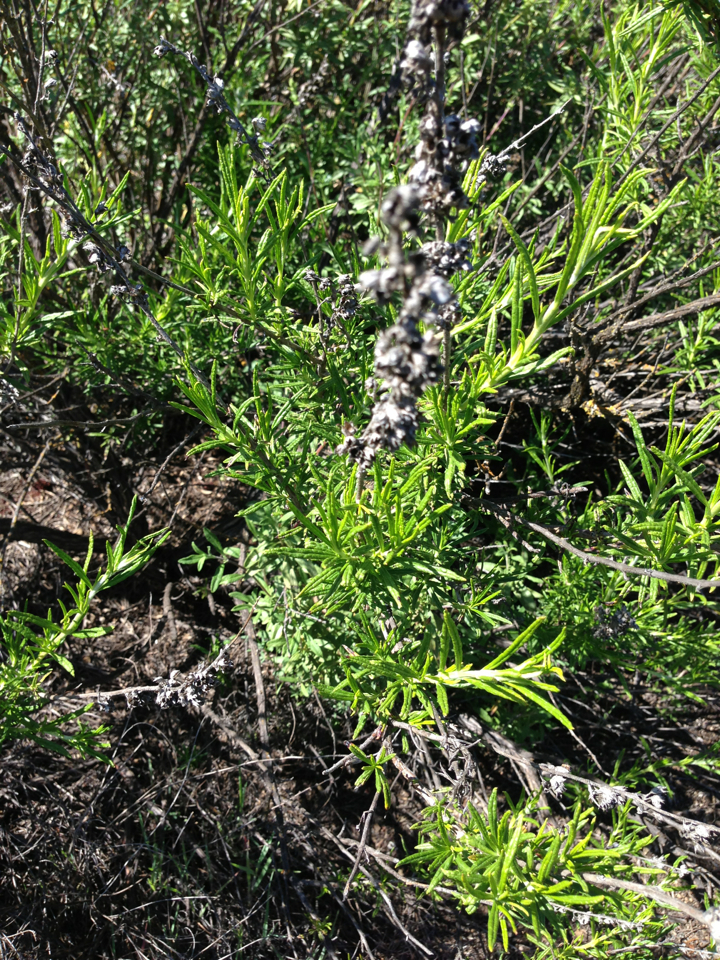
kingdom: Plantae
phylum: Tracheophyta
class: Magnoliopsida
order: Lamiales
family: Lamiaceae
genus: Trichostema
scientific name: Trichostema lanatum
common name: Woolly bluecurls
